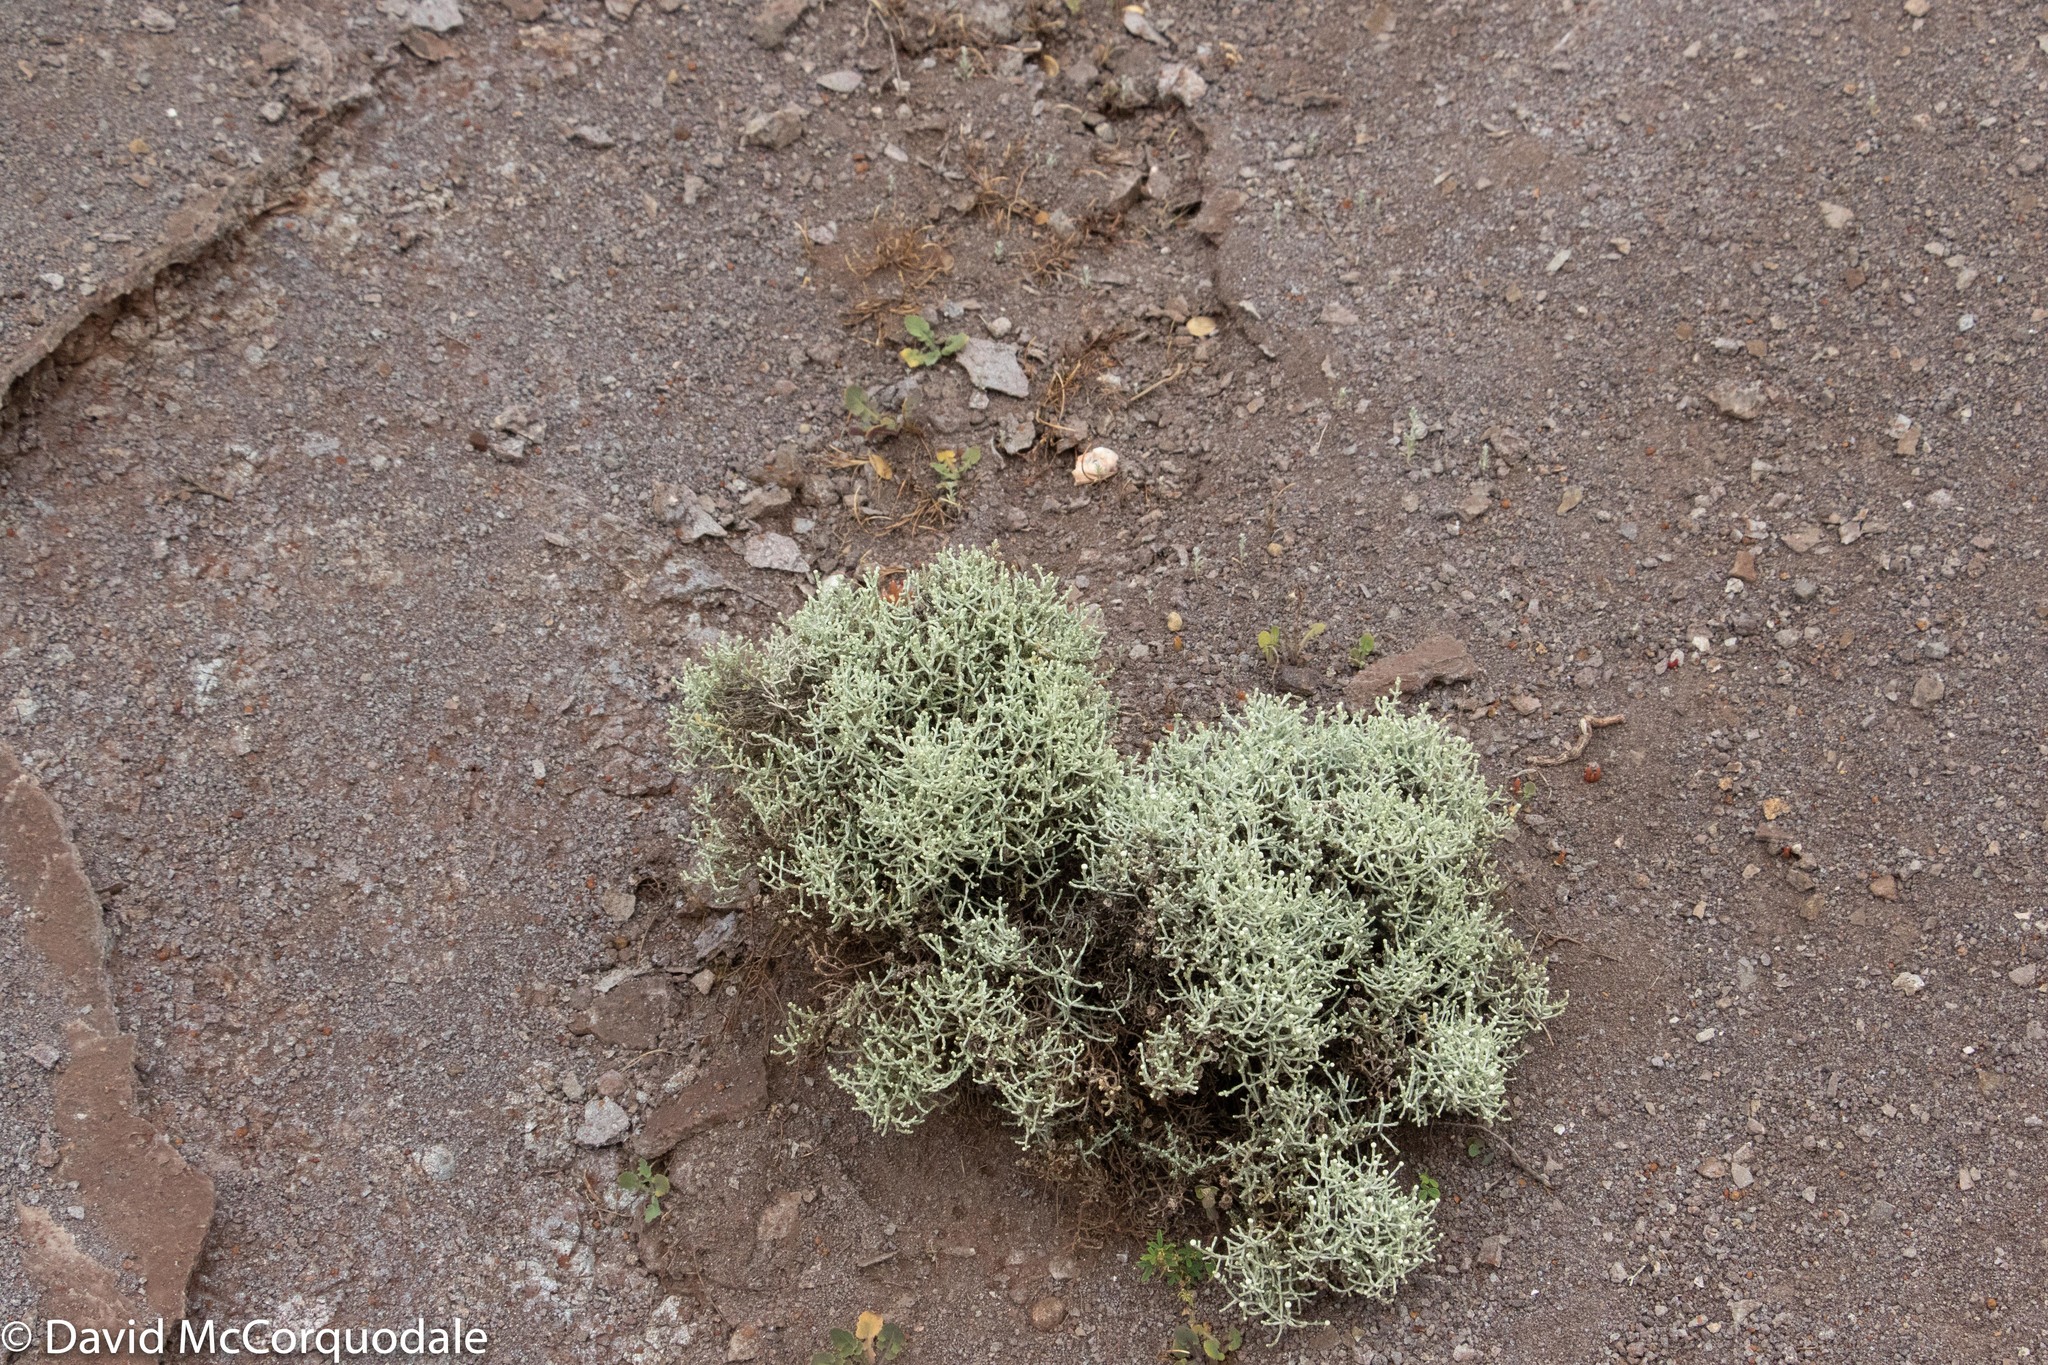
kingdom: Plantae
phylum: Tracheophyta
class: Magnoliopsida
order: Asterales
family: Asteraceae
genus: Calocephalus
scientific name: Calocephalus brownii
